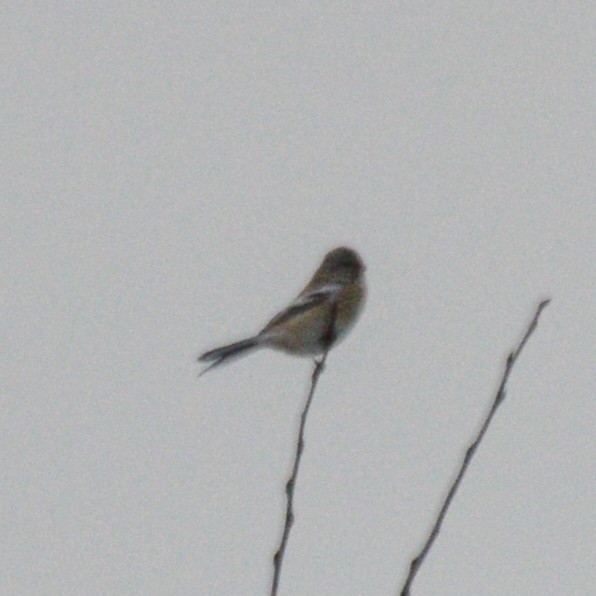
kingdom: Animalia
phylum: Chordata
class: Aves
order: Passeriformes
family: Fringillidae
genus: Carpodacus
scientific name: Carpodacus sibiricus
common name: Long-tailed rosefinch
